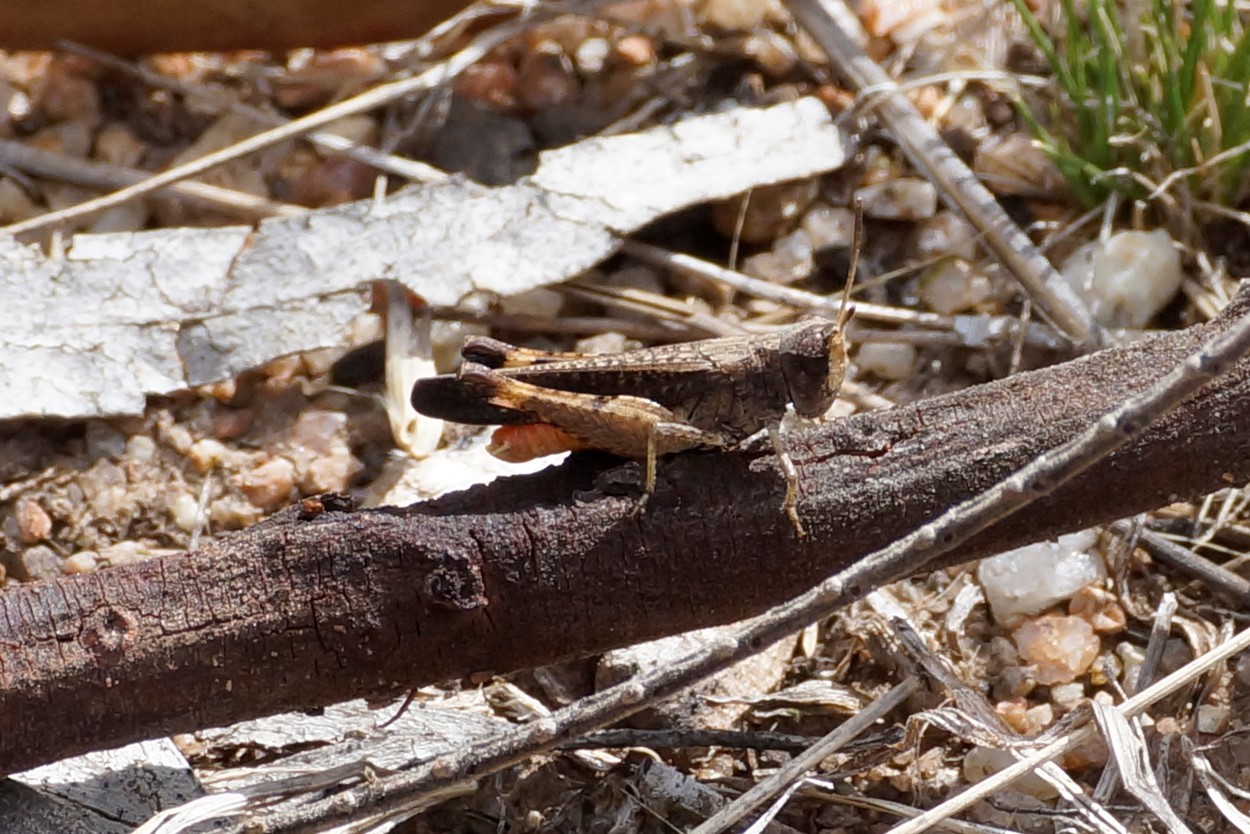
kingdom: Animalia
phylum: Arthropoda
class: Insecta
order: Orthoptera
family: Acrididae
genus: Cryptobothrus
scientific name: Cryptobothrus chrysophorus
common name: Golden bandwing
